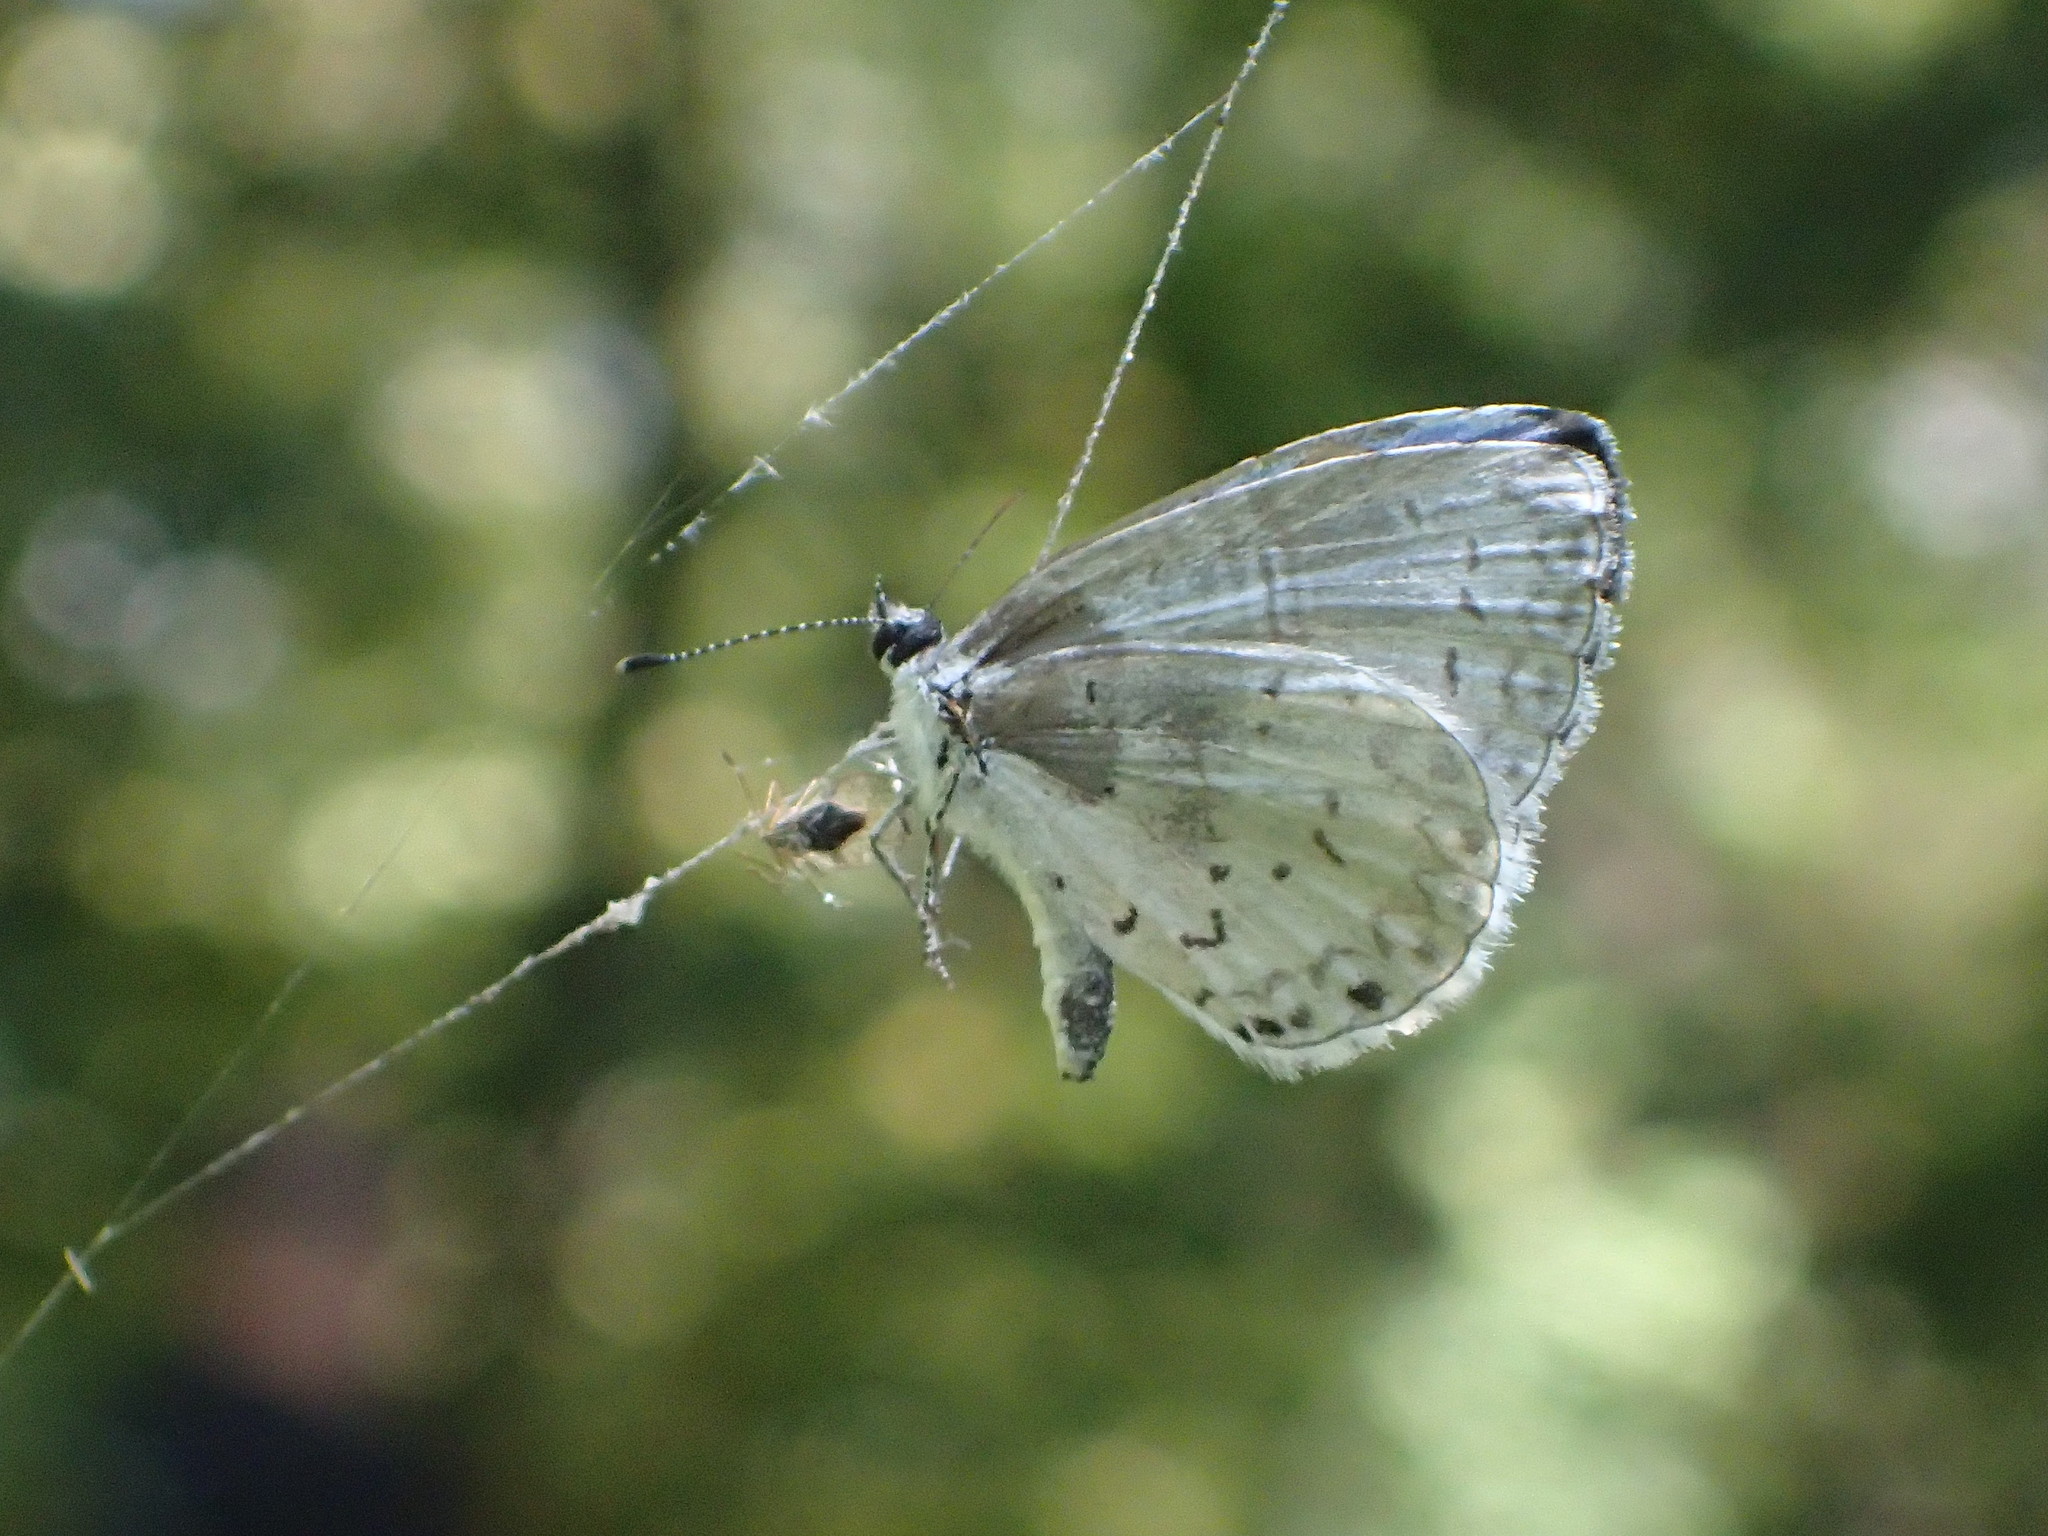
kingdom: Animalia
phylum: Arthropoda
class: Insecta
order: Lepidoptera
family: Lycaenidae
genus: Cyaniris
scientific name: Cyaniris neglecta
